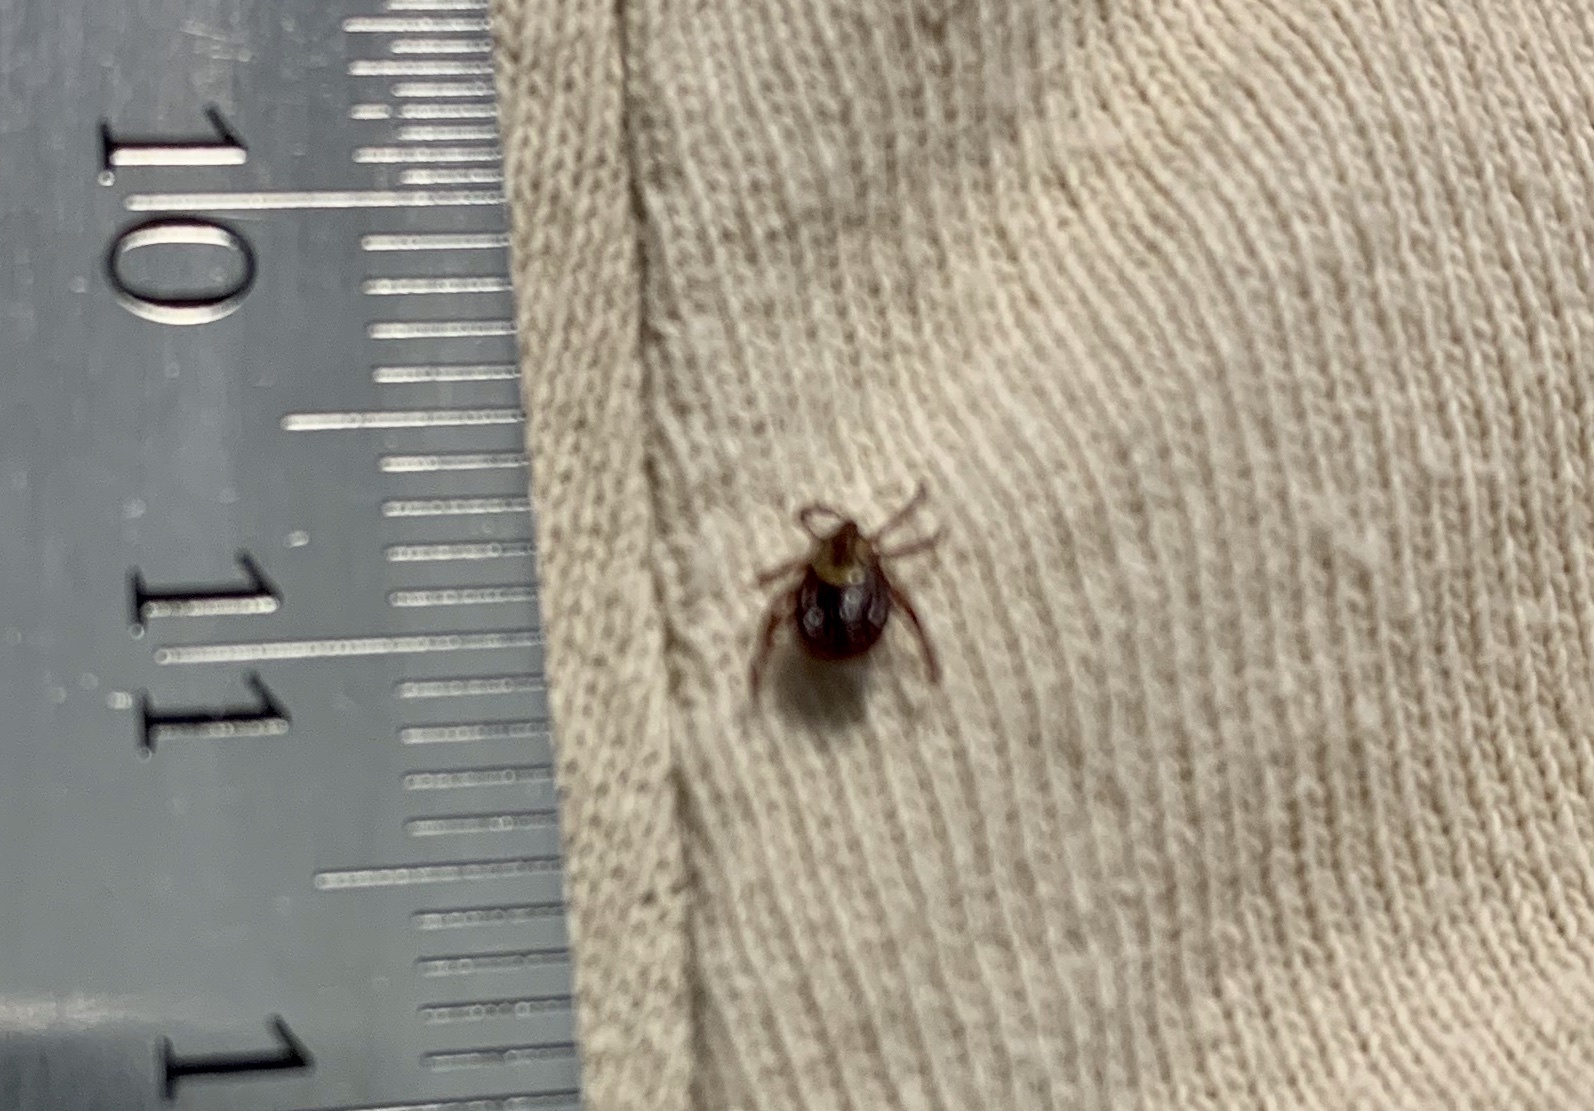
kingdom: Animalia
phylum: Arthropoda
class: Arachnida
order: Ixodida
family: Ixodidae
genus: Dermacentor
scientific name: Dermacentor variabilis
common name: American dog tick
